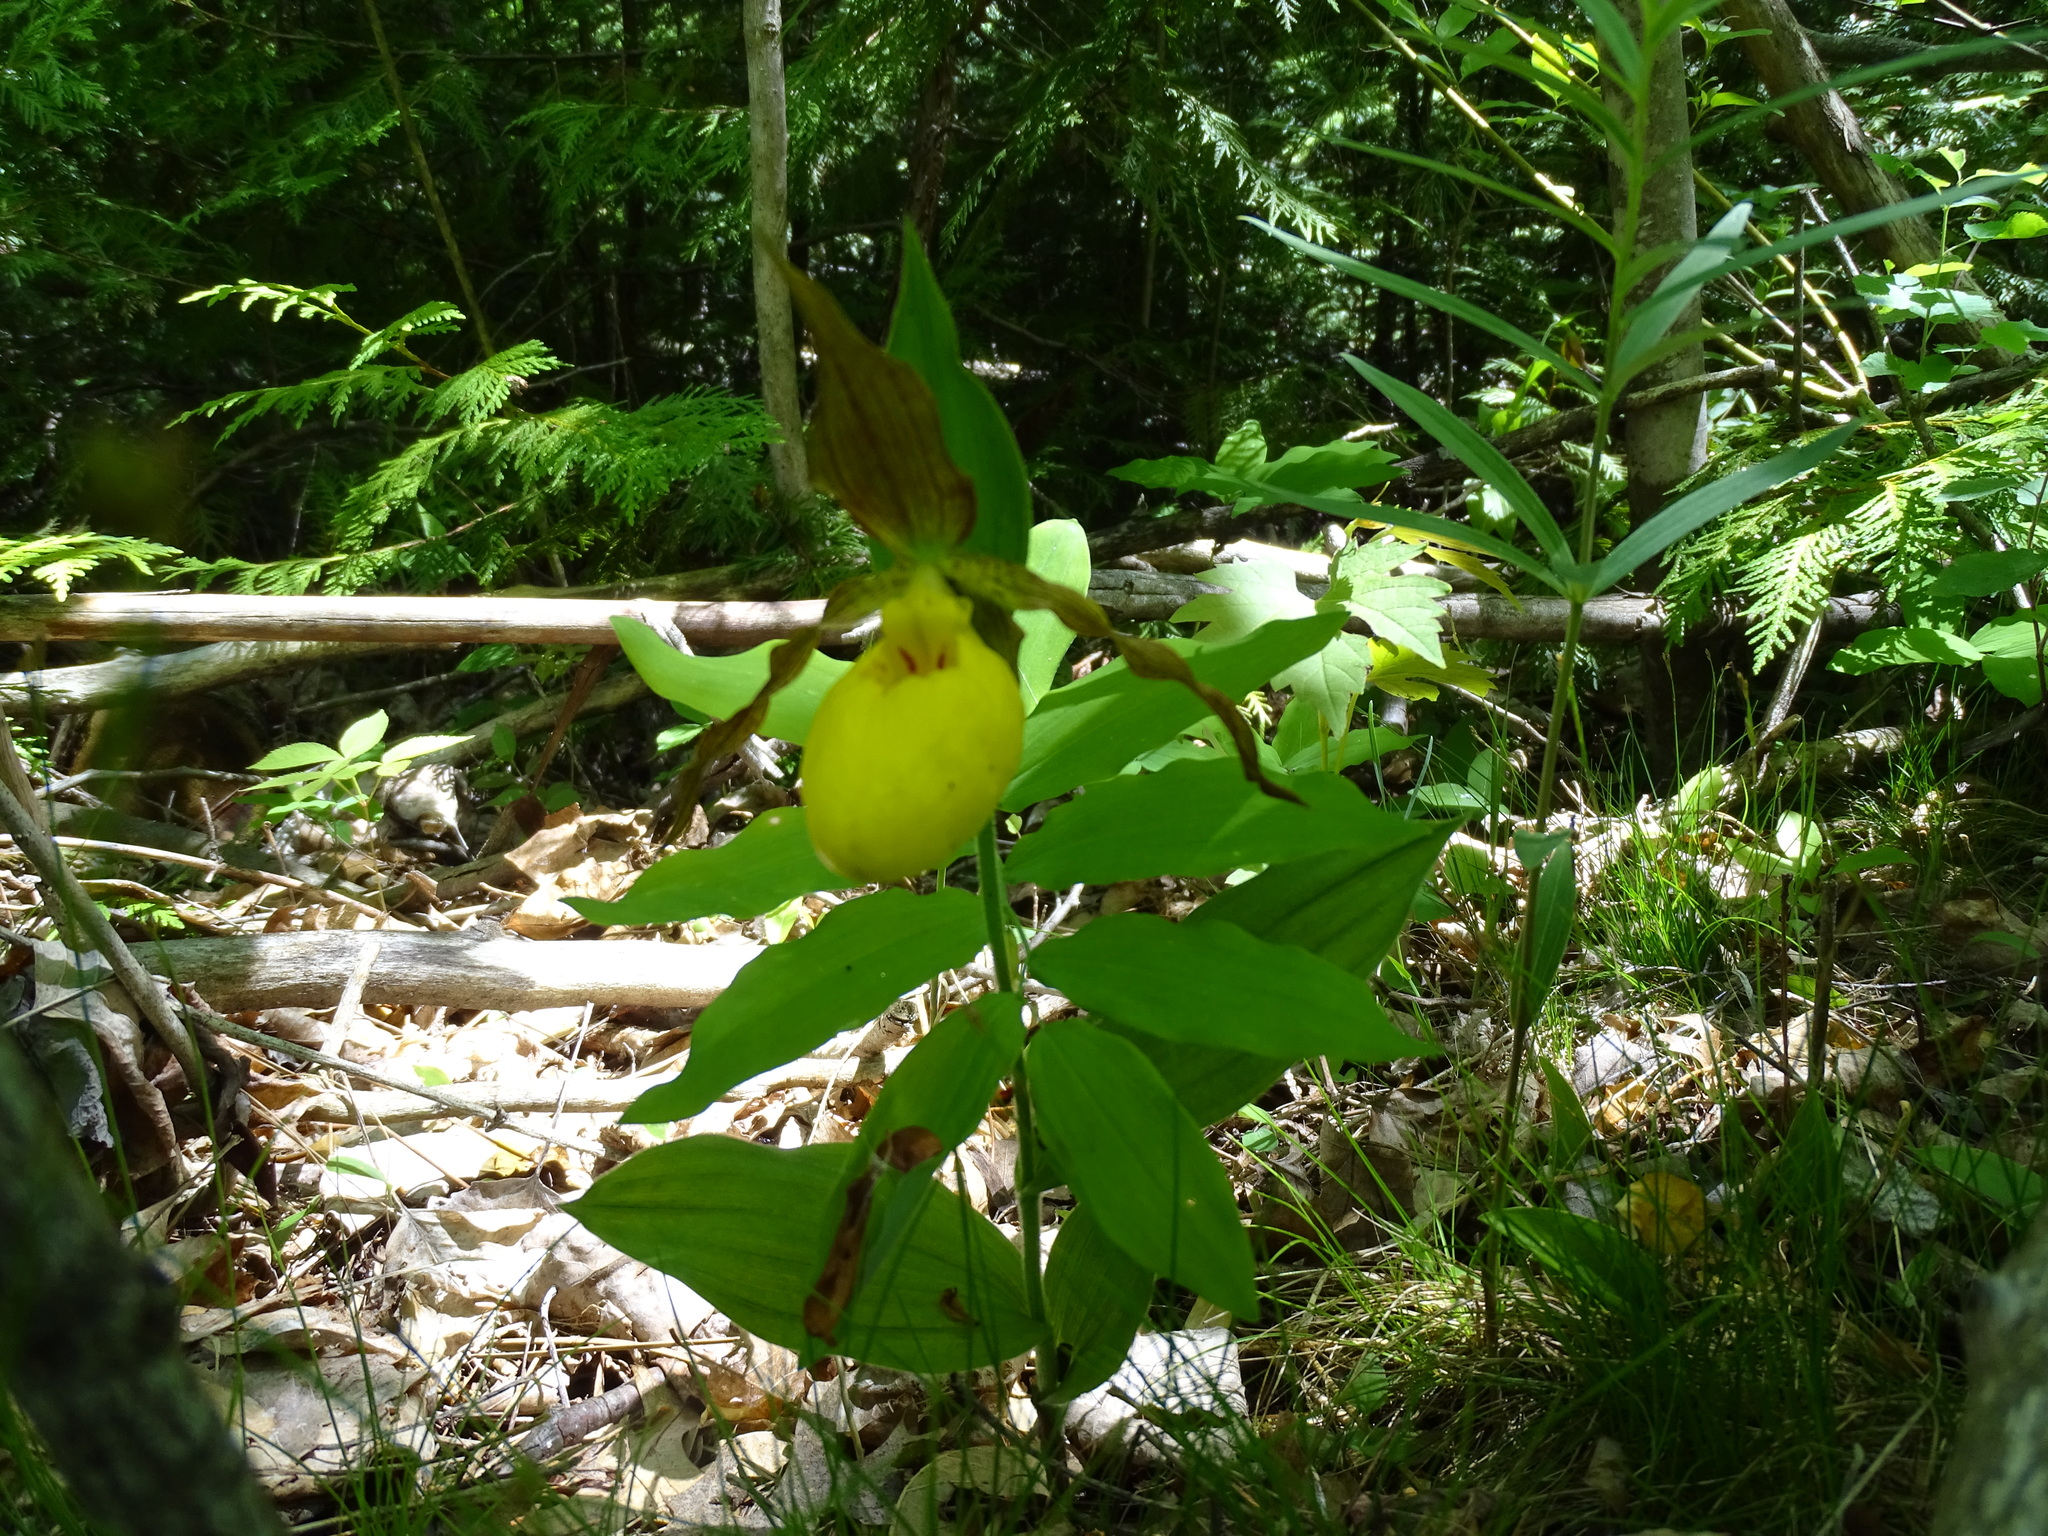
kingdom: Plantae
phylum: Tracheophyta
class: Liliopsida
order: Asparagales
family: Orchidaceae
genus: Cypripedium
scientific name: Cypripedium parviflorum
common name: American yellow lady's-slipper
